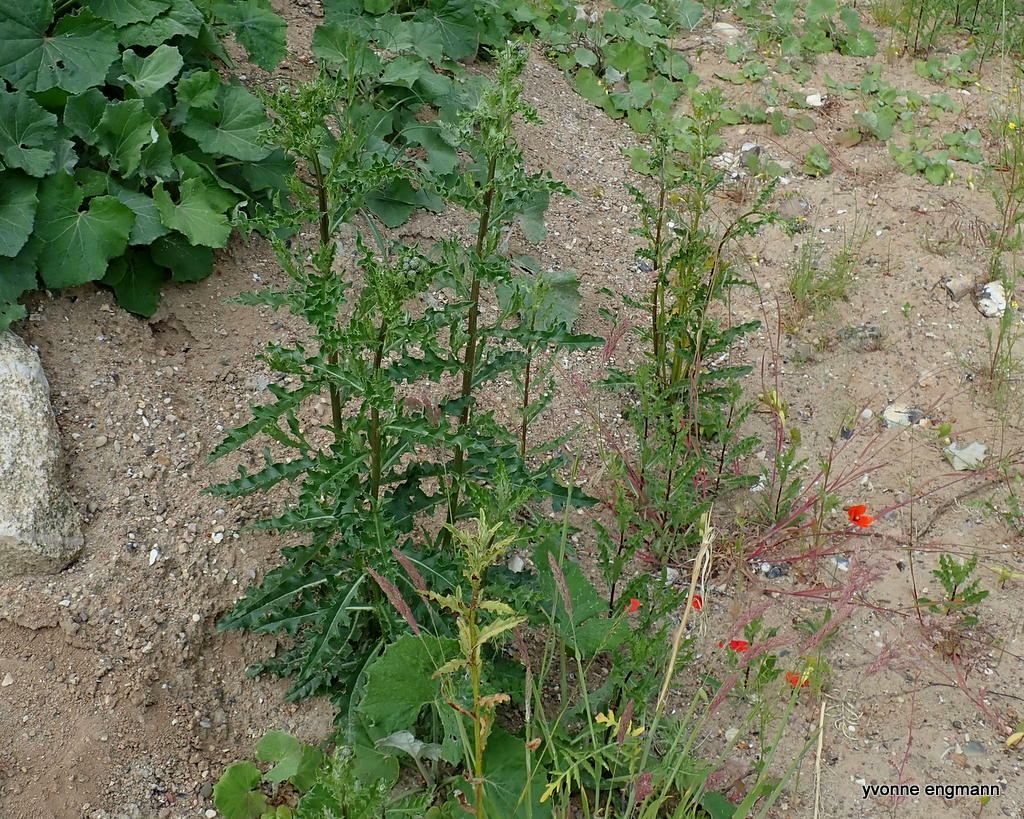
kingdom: Plantae
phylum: Tracheophyta
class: Magnoliopsida
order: Asterales
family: Asteraceae
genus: Cirsium
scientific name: Cirsium arvense
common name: Creeping thistle
